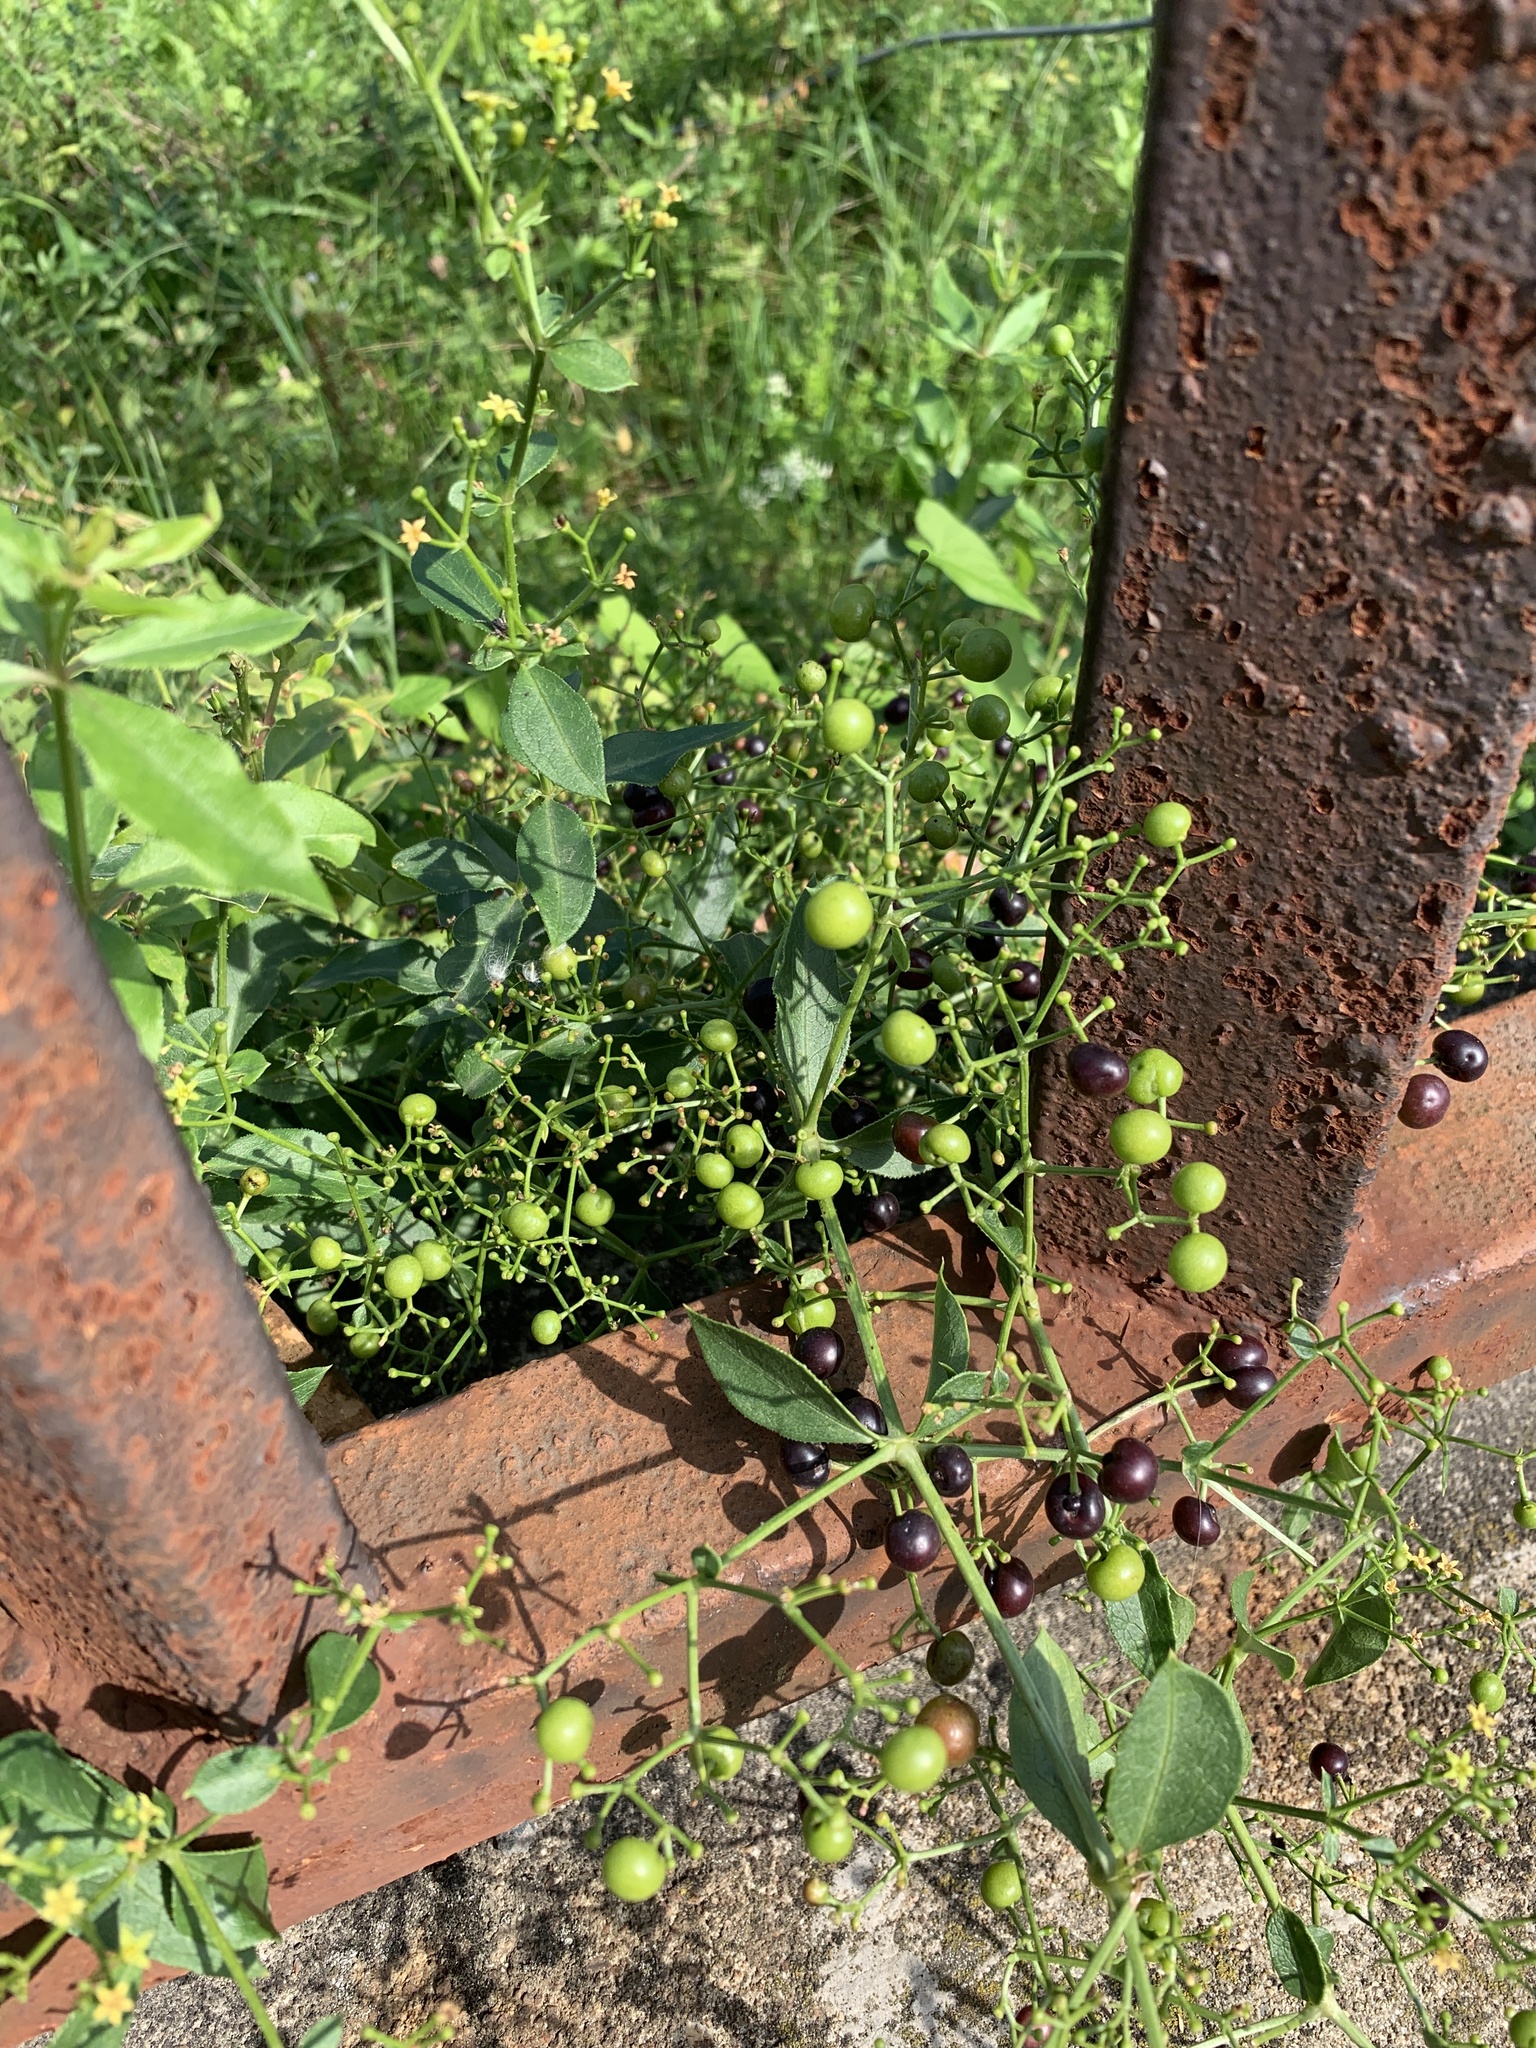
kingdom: Plantae
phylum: Tracheophyta
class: Magnoliopsida
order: Gentianales
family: Rubiaceae
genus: Rubia
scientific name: Rubia tinctorum
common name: Dyer's madder
